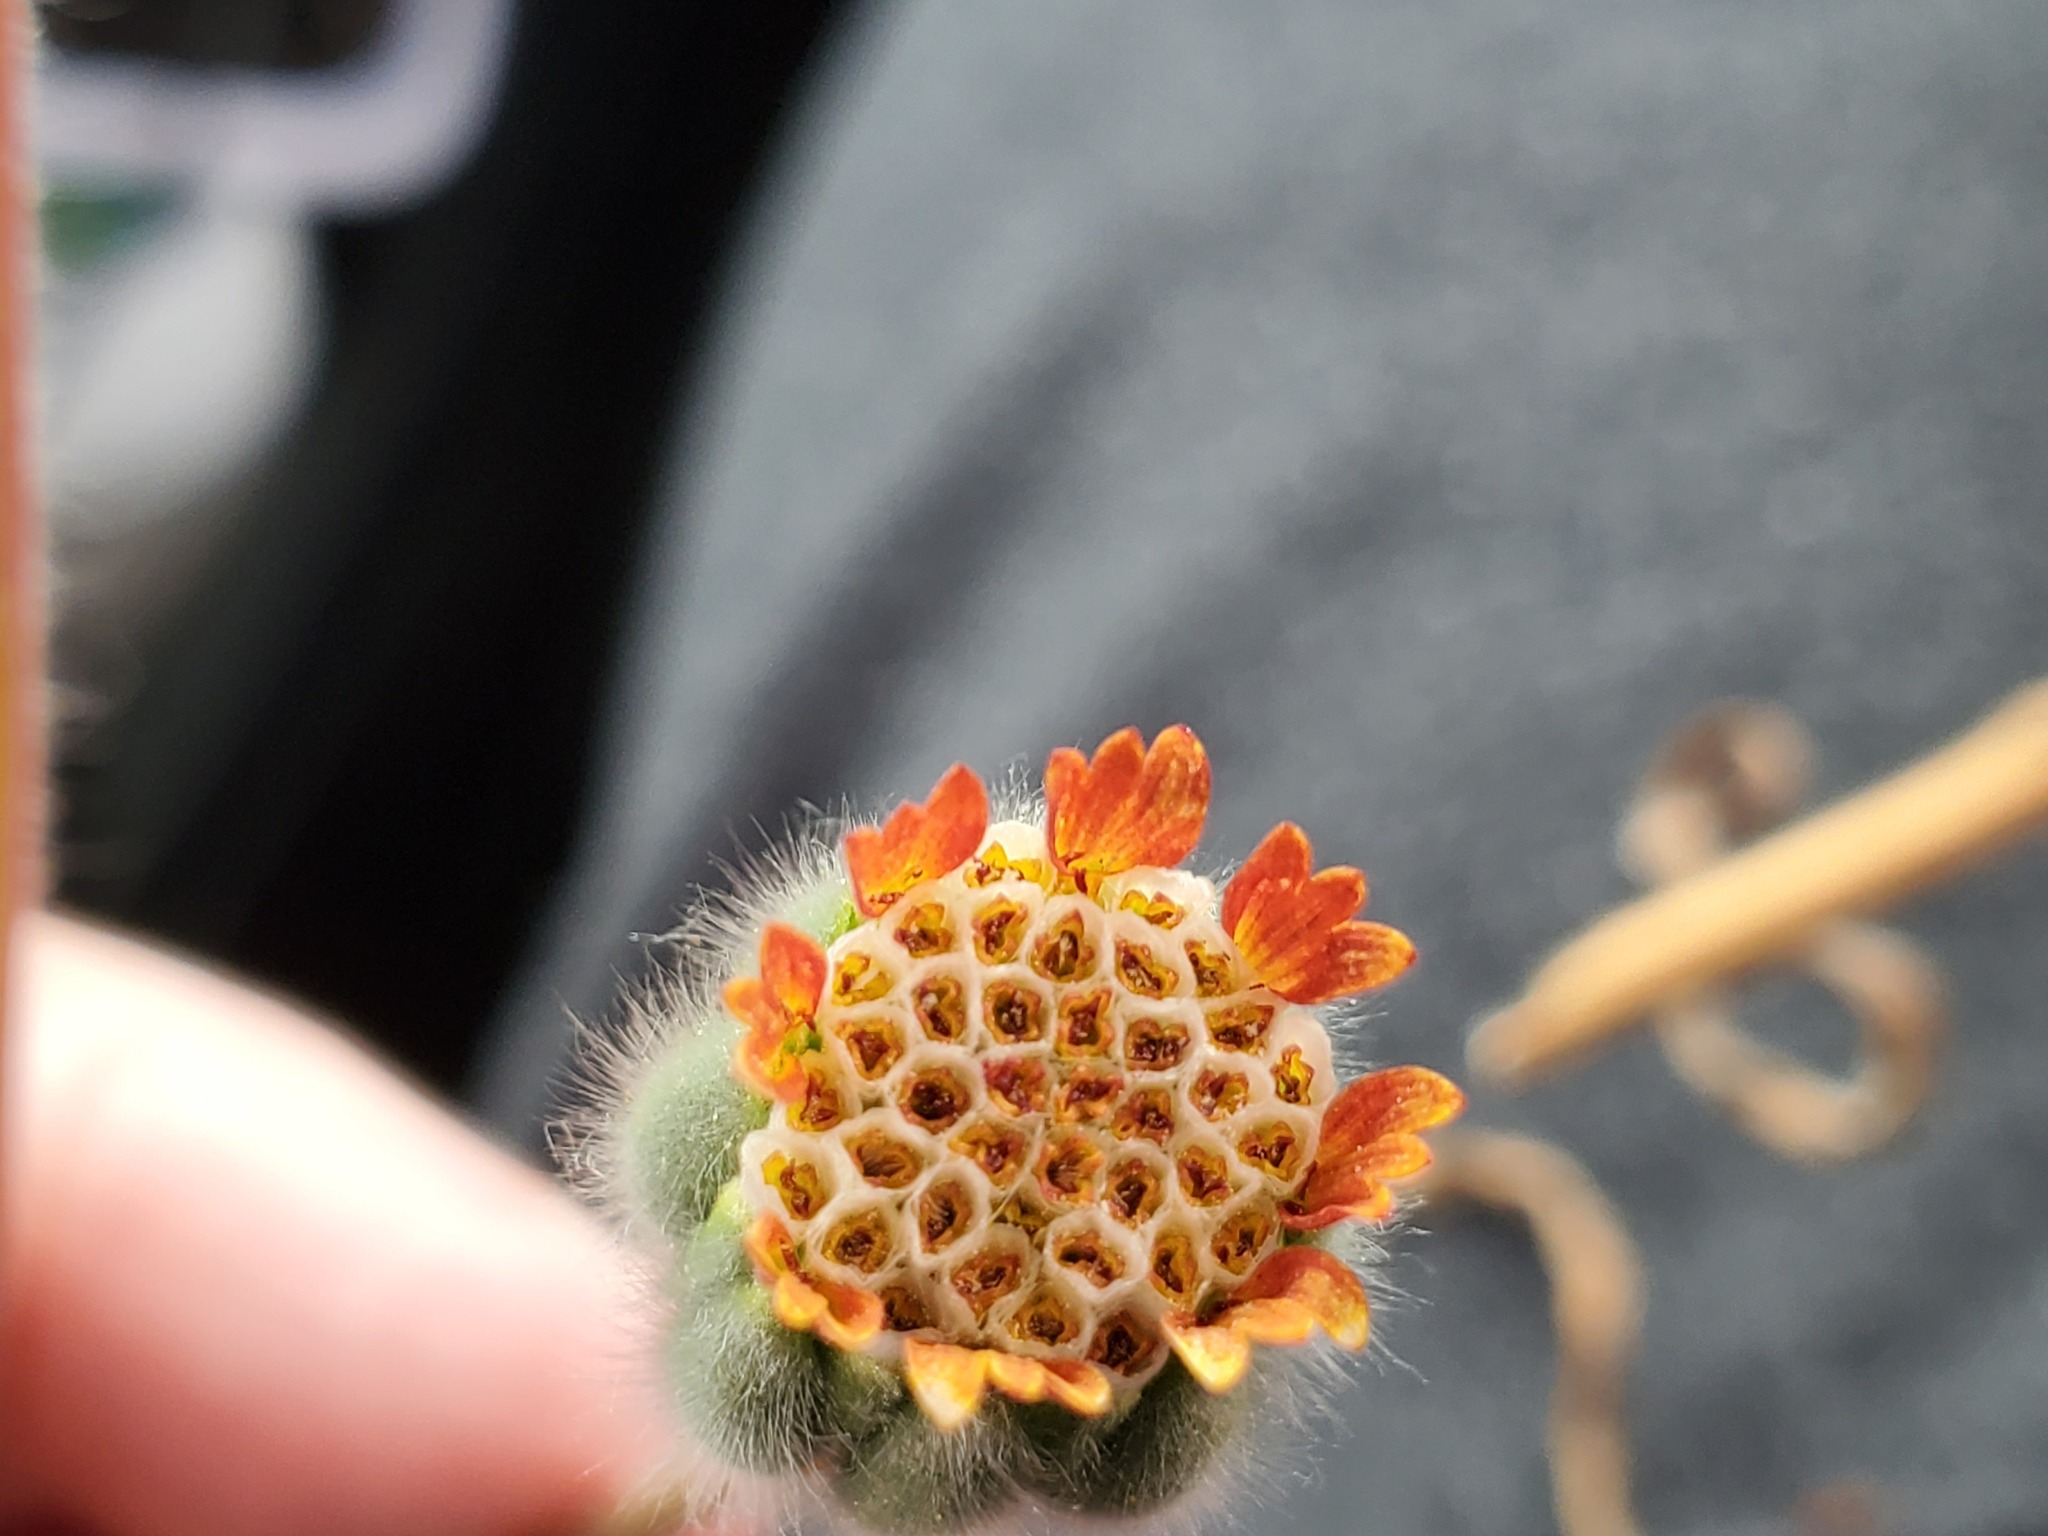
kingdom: Plantae
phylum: Tracheophyta
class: Magnoliopsida
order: Asterales
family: Asteraceae
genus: Achyrachaena
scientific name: Achyrachaena mollis
